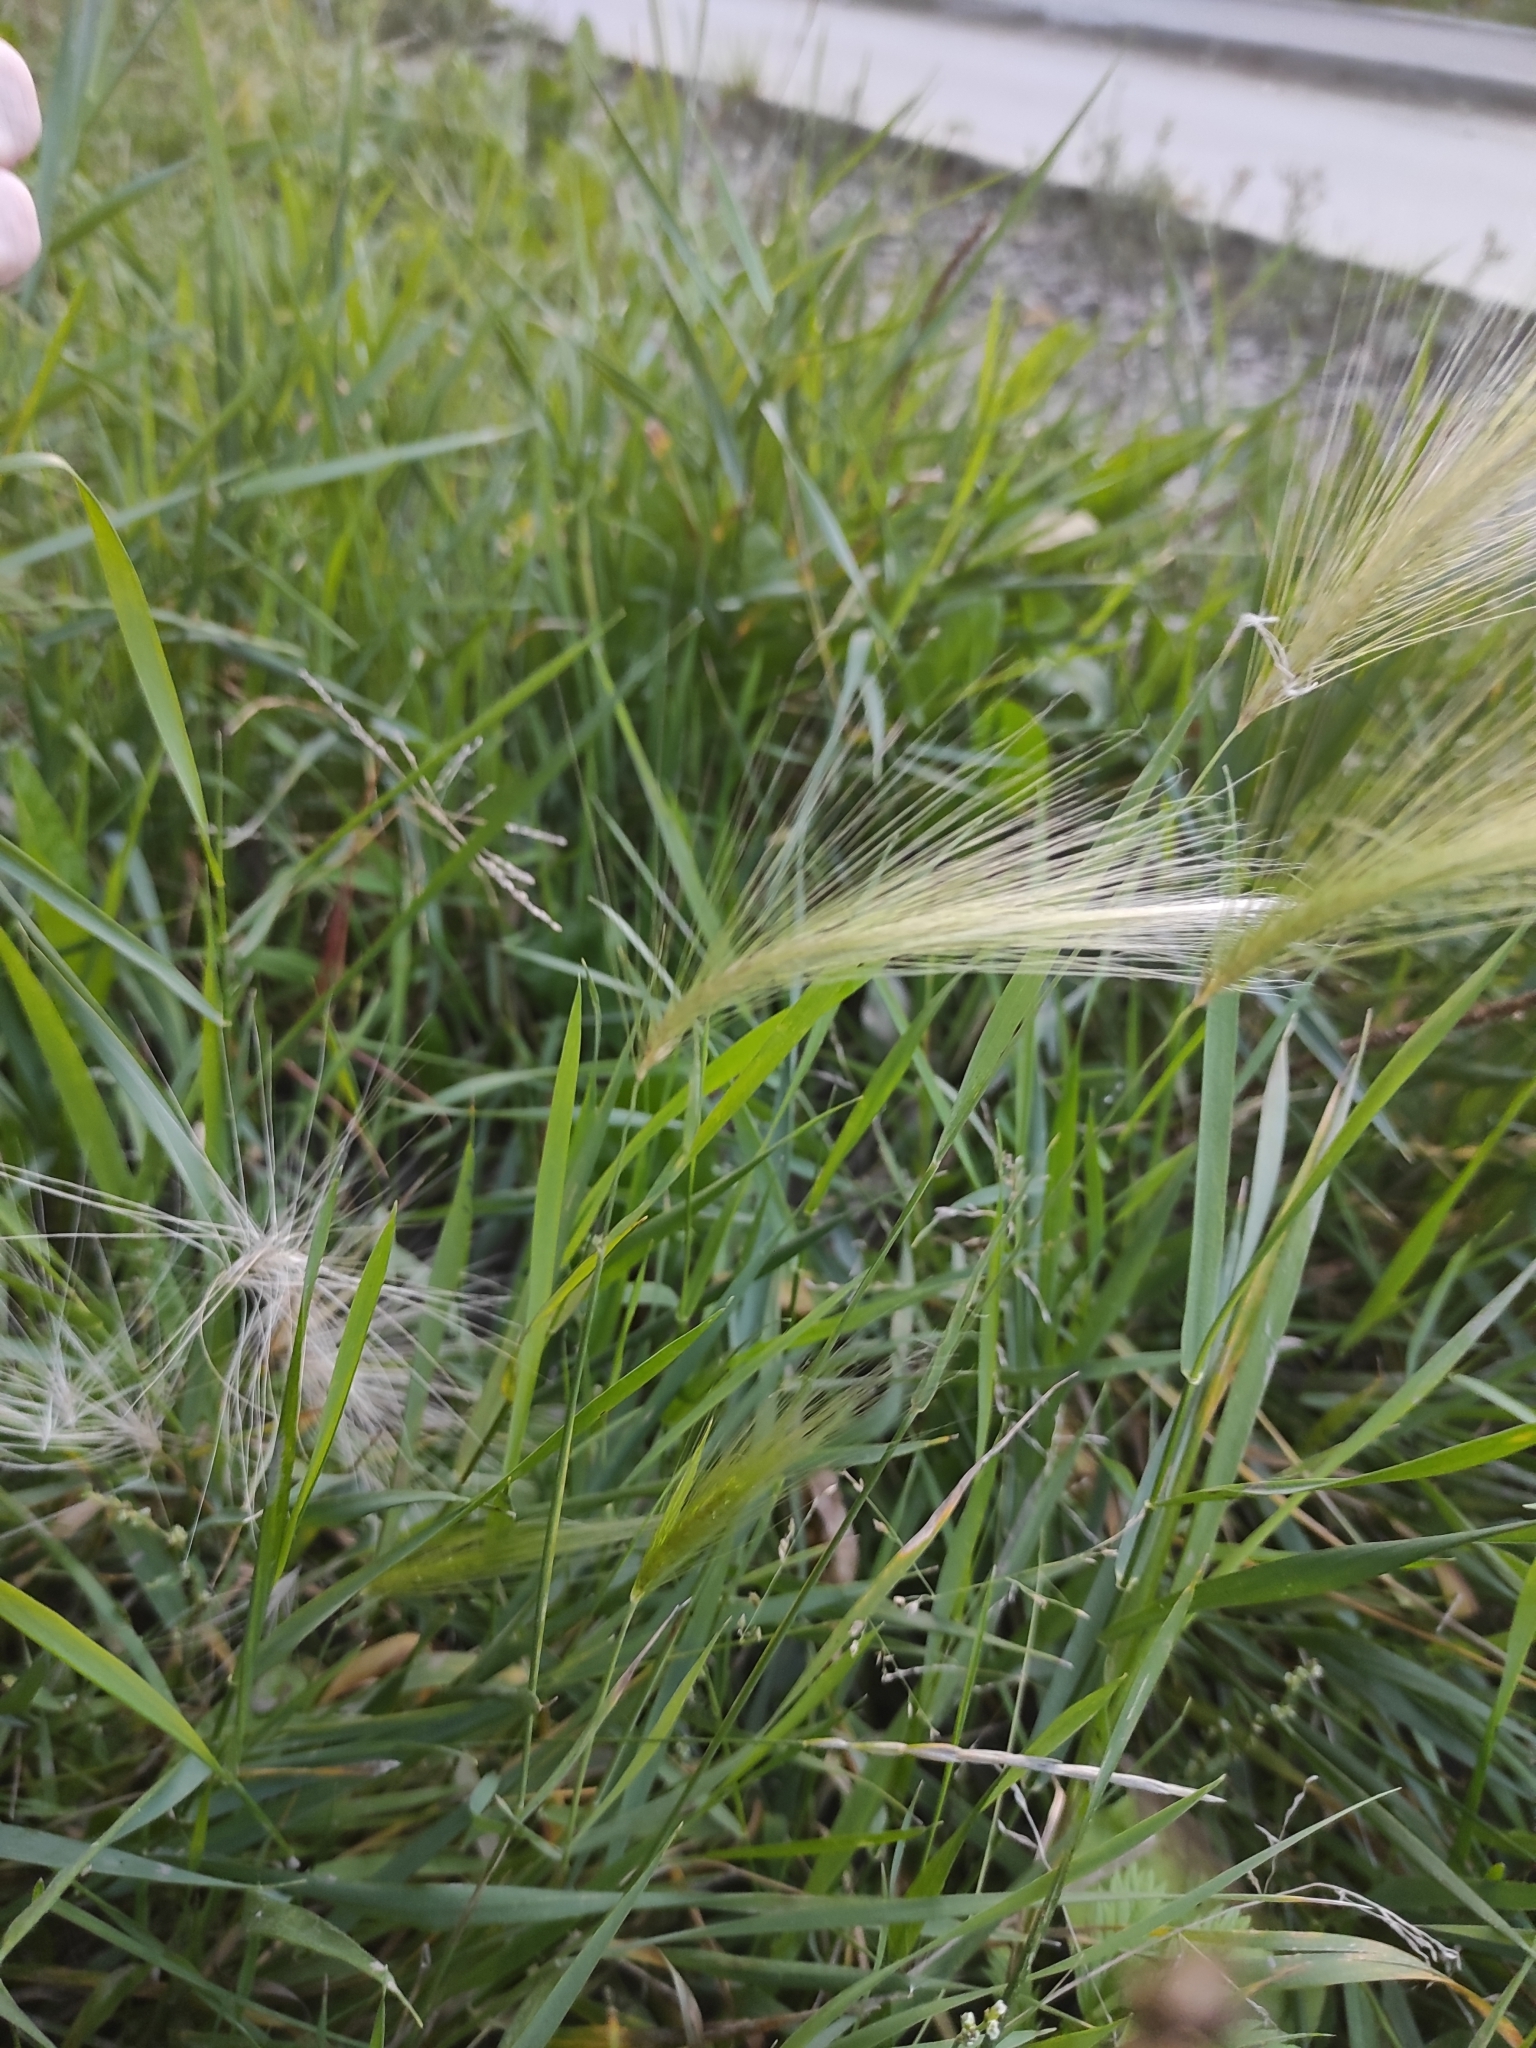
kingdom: Plantae
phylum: Tracheophyta
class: Liliopsida
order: Poales
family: Poaceae
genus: Hordeum
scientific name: Hordeum jubatum
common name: Foxtail barley
